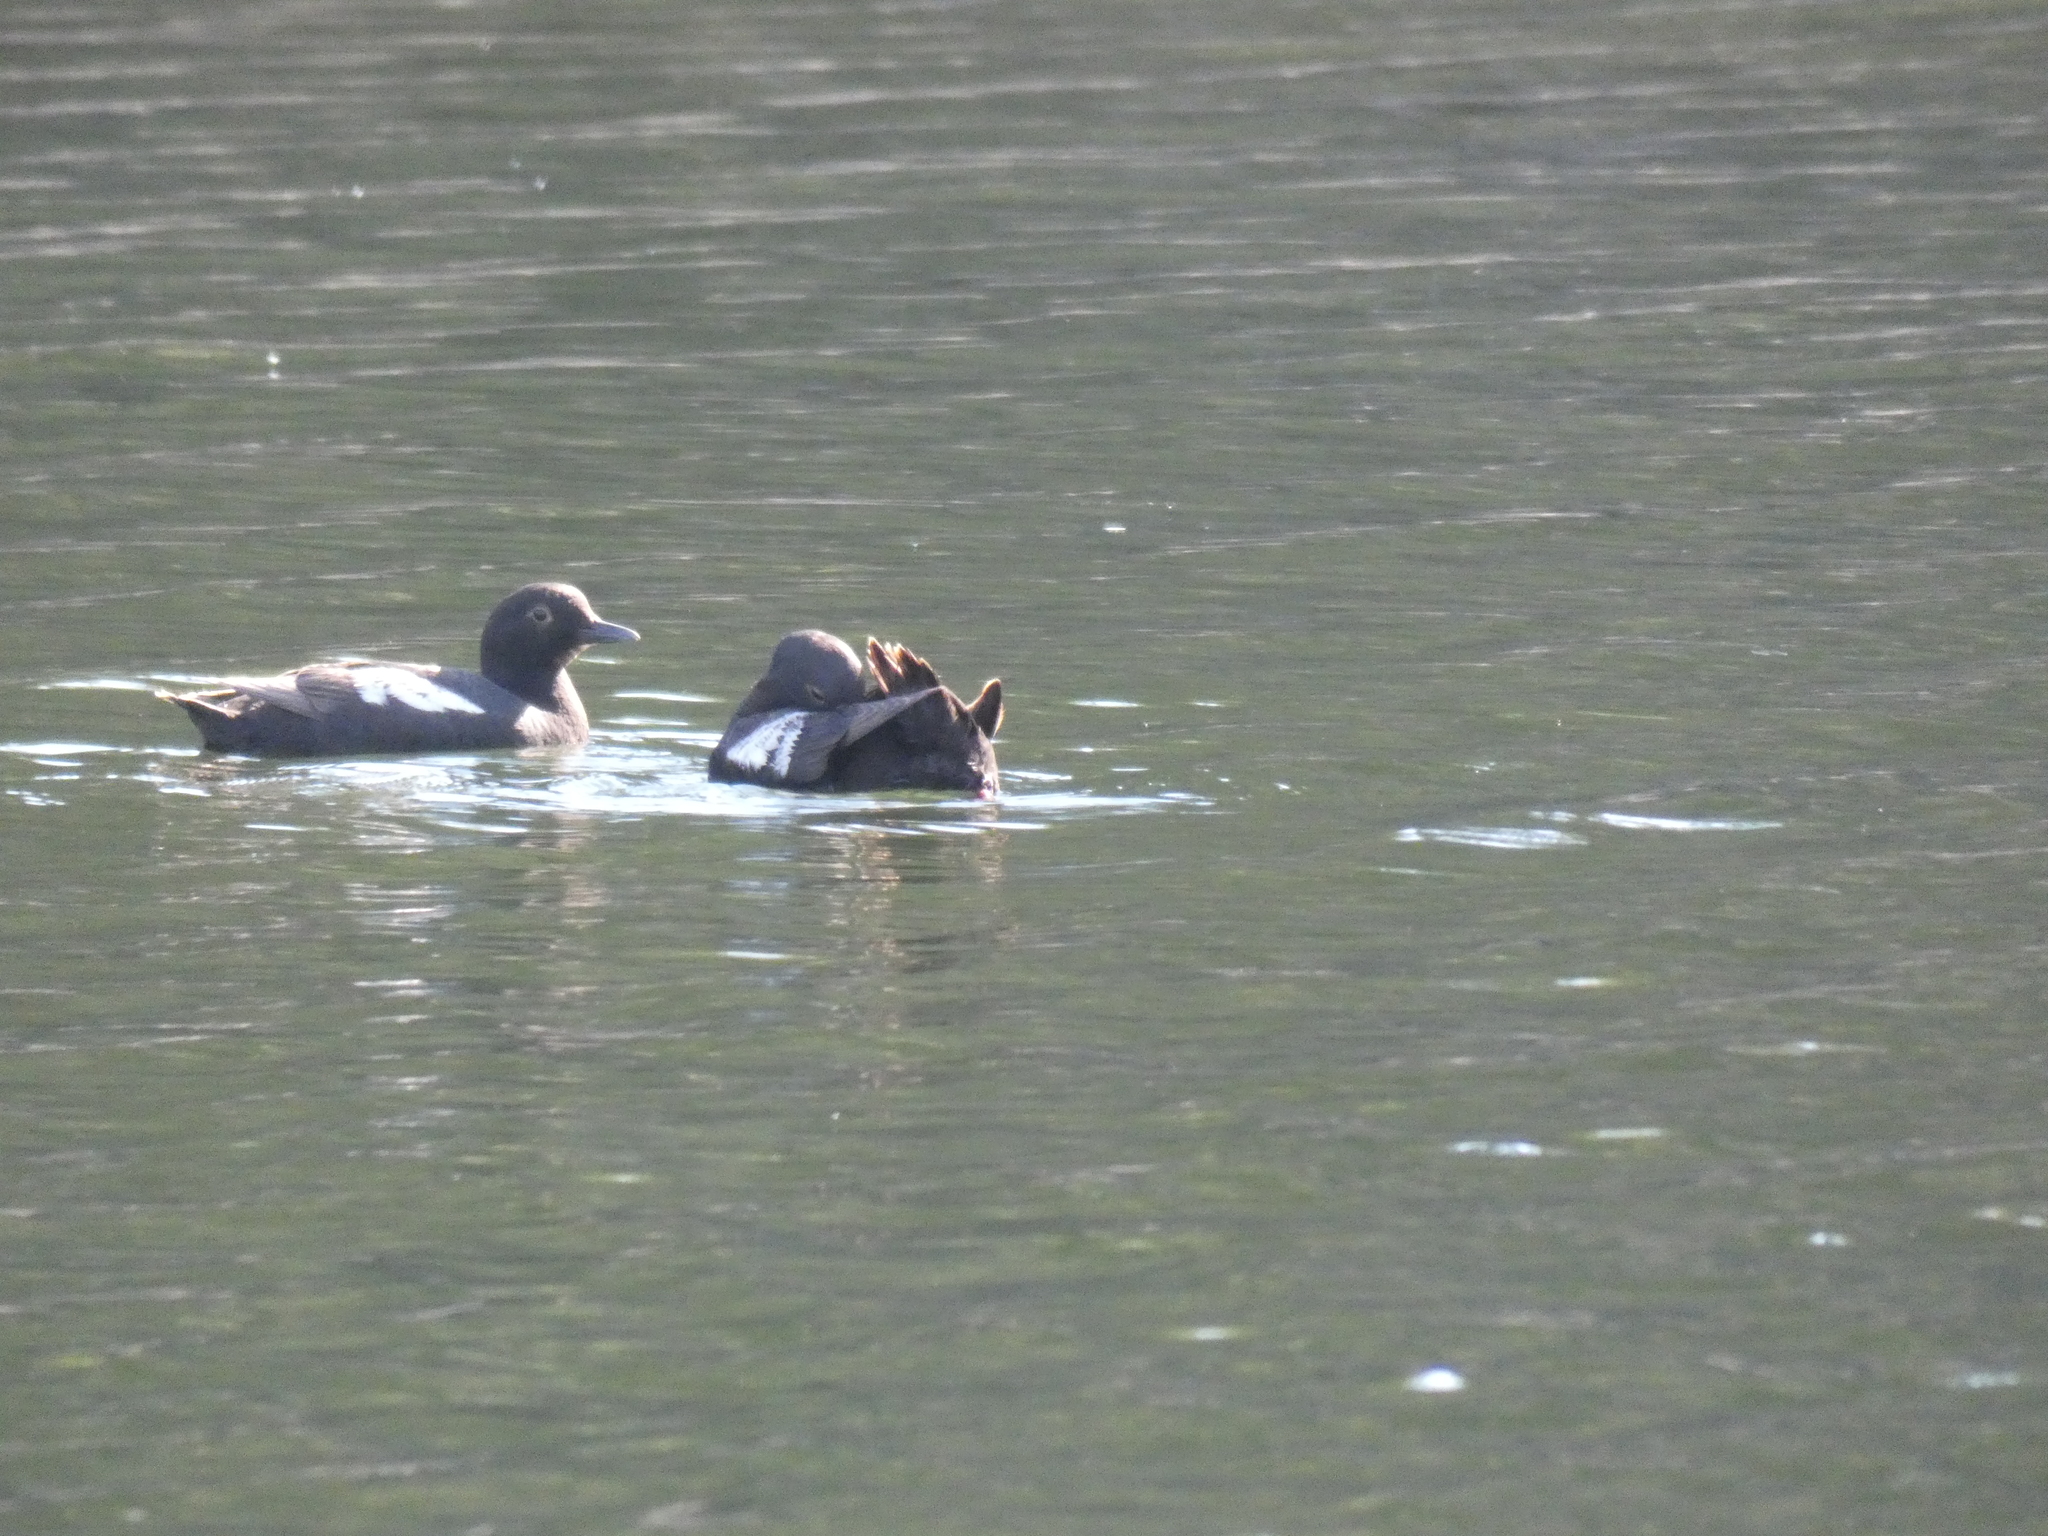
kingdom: Animalia
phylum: Chordata
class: Aves
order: Charadriiformes
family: Alcidae
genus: Cepphus
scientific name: Cepphus columba
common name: Pigeon guillemot
